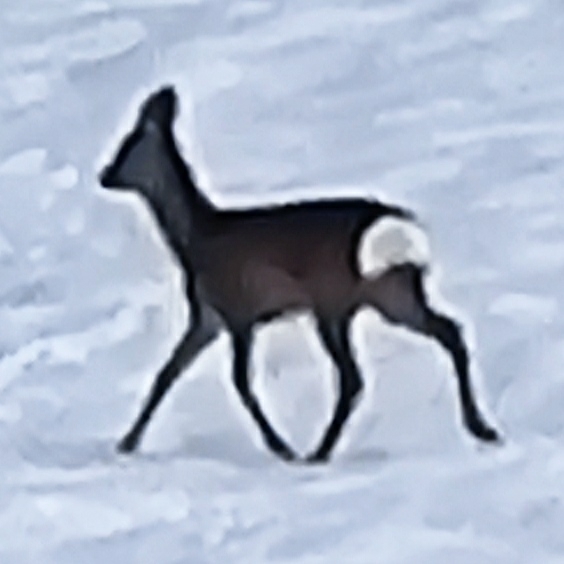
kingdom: Animalia
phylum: Chordata
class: Mammalia
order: Artiodactyla
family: Cervidae
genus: Capreolus
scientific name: Capreolus capreolus
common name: Western roe deer
